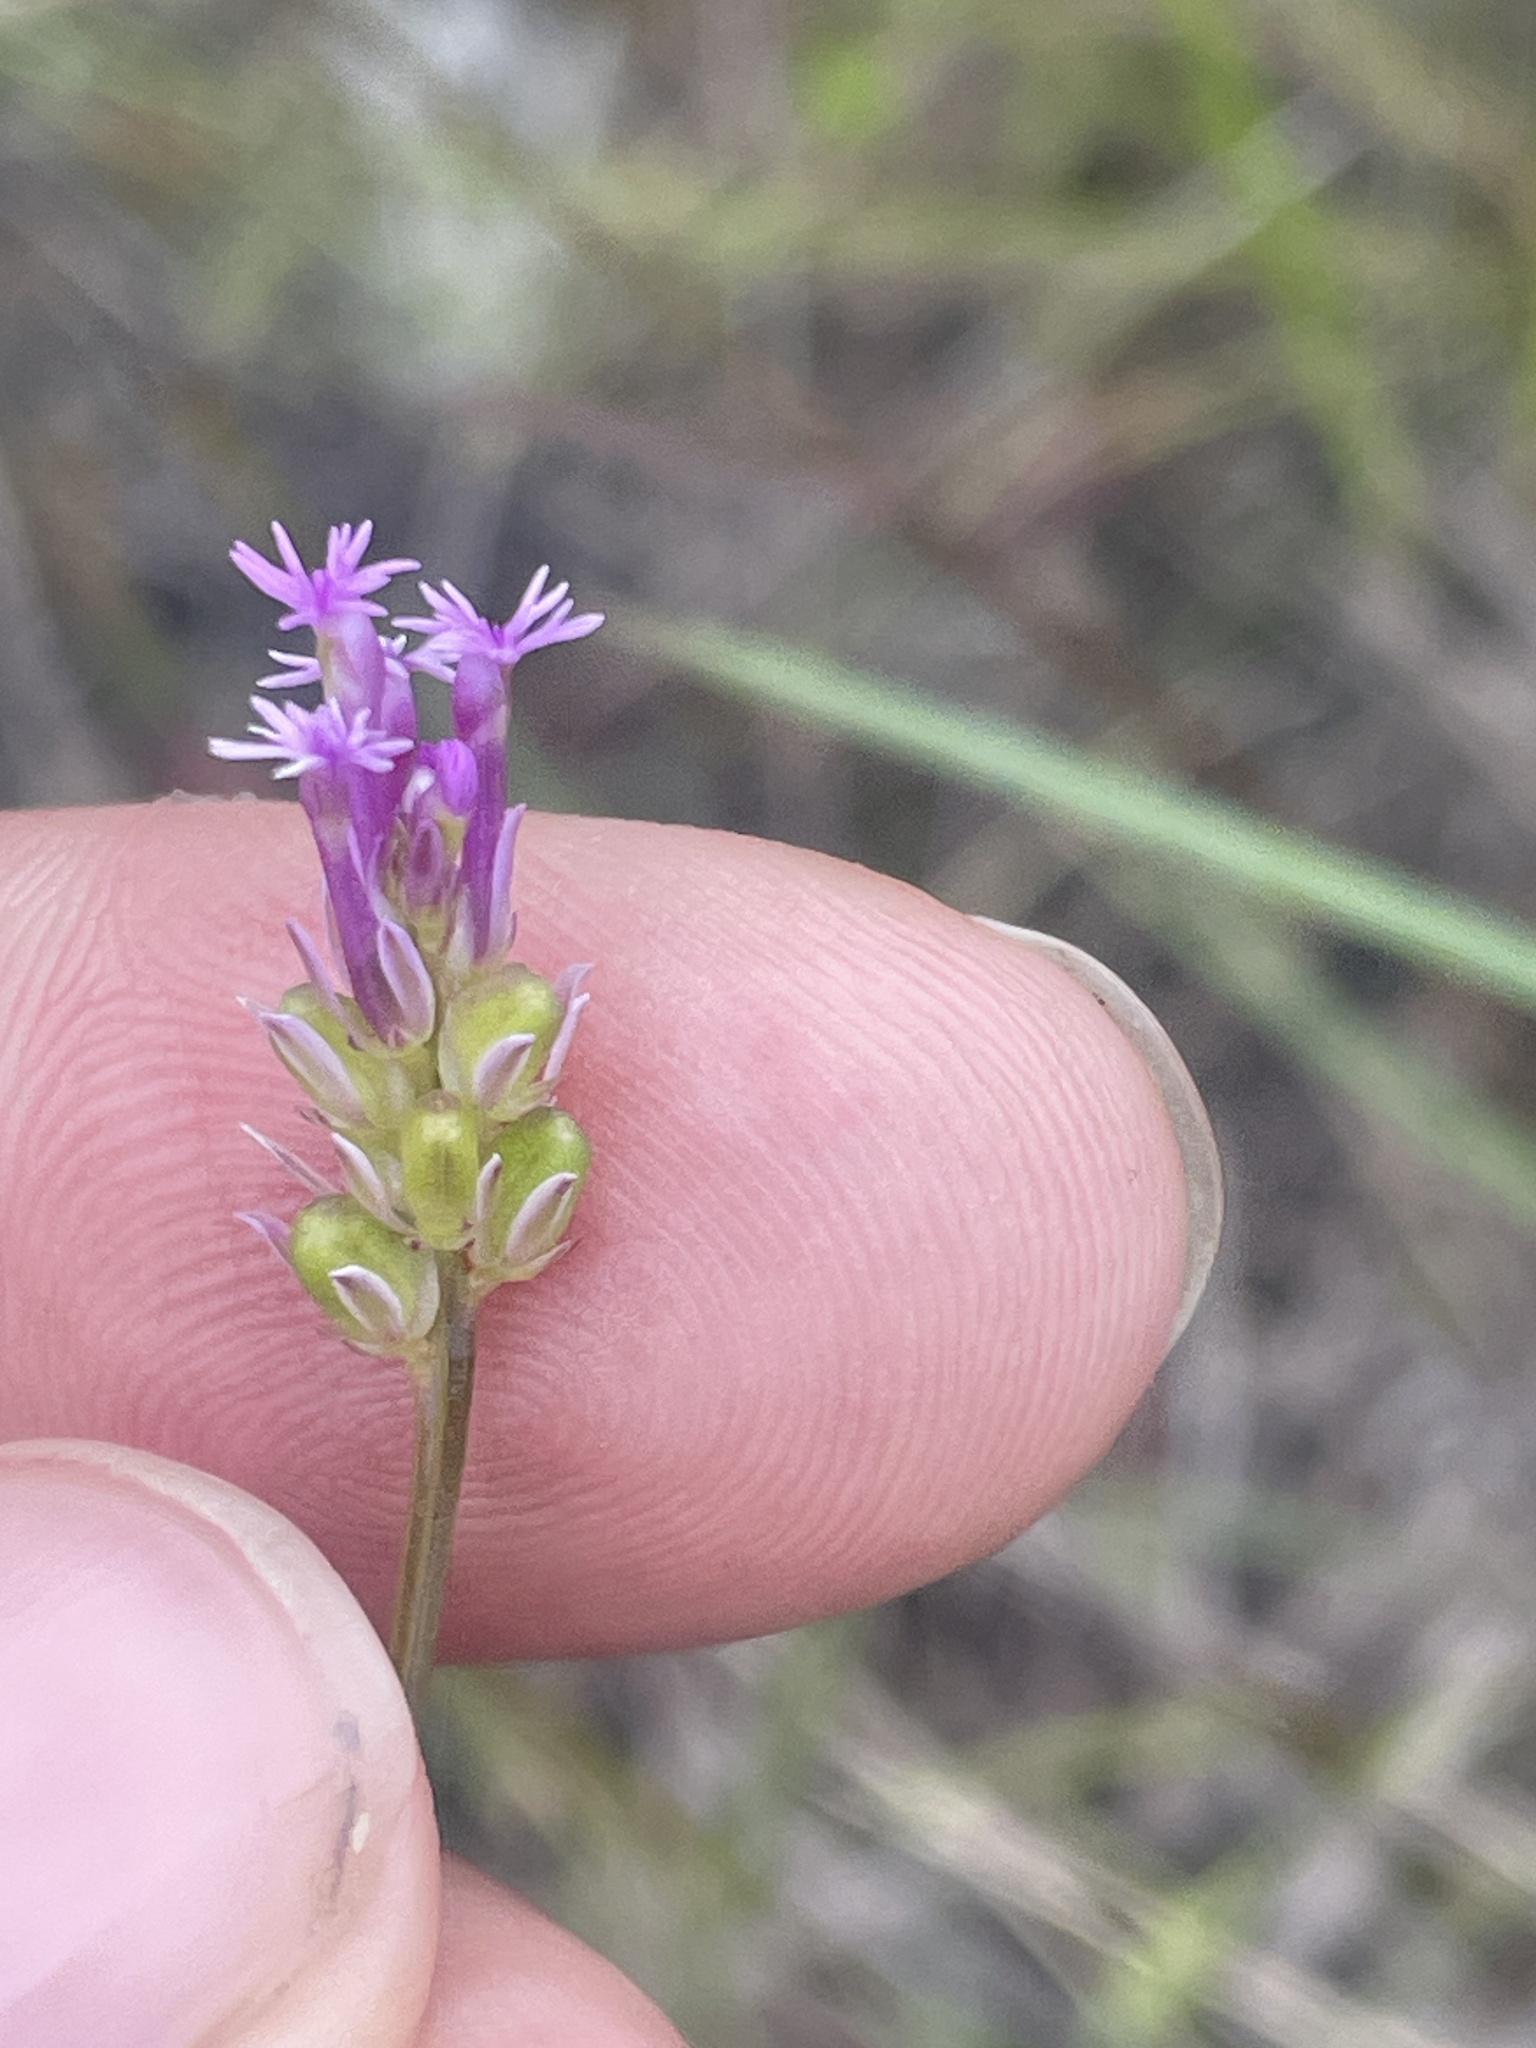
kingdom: Plantae
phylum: Tracheophyta
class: Magnoliopsida
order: Fabales
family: Polygalaceae
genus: Polygala
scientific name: Polygala incarnata
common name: Pink milkwort
